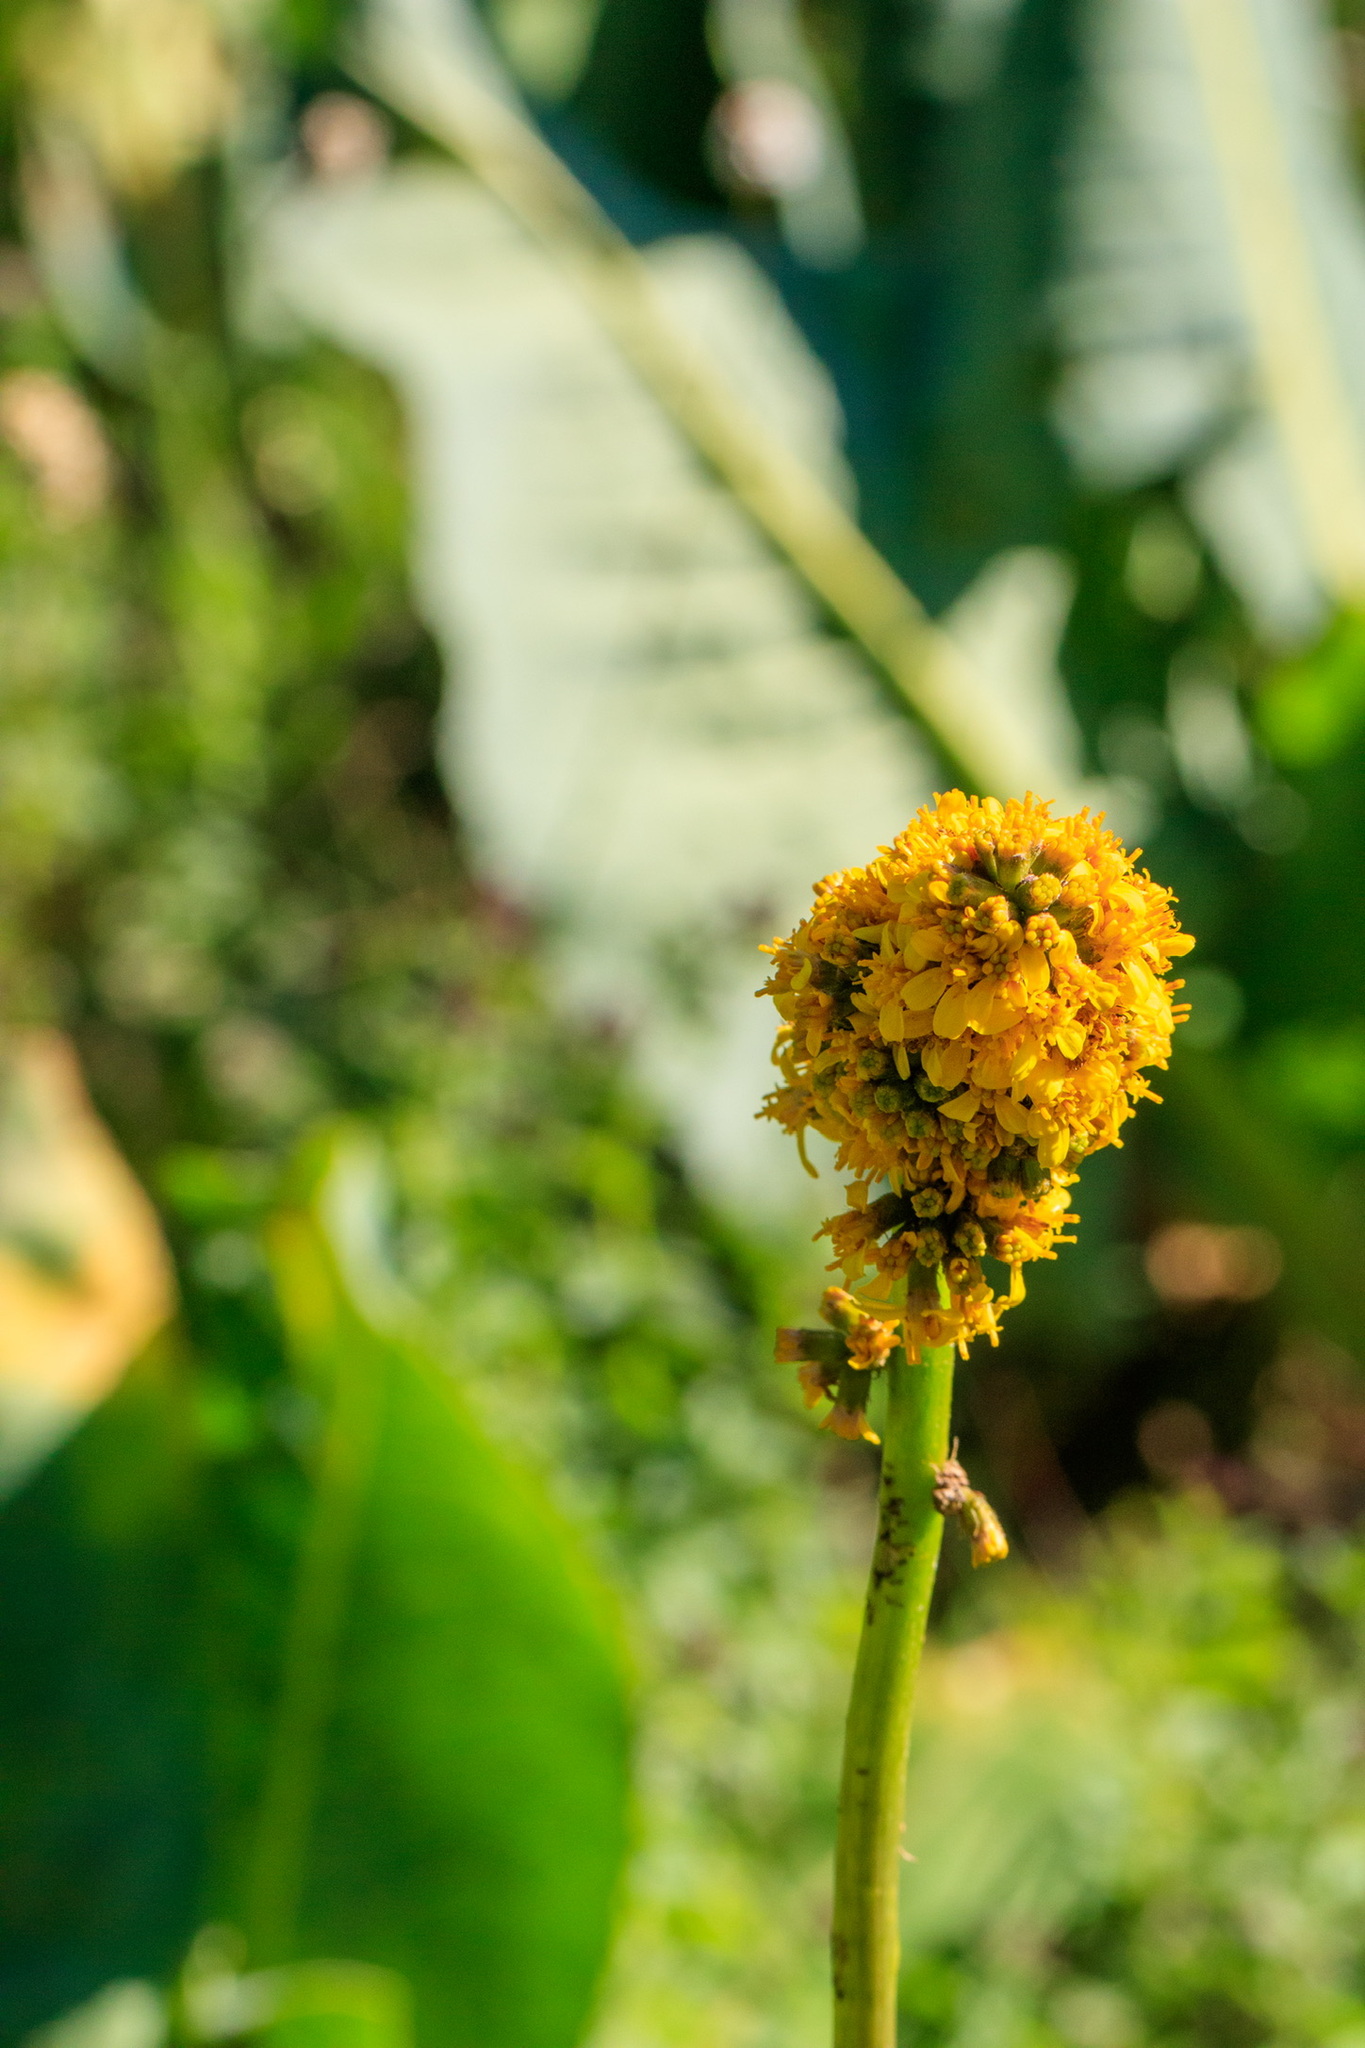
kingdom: Plantae
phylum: Tracheophyta
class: Magnoliopsida
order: Asterales
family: Asteraceae
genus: Ligularia
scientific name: Ligularia heterophylla
